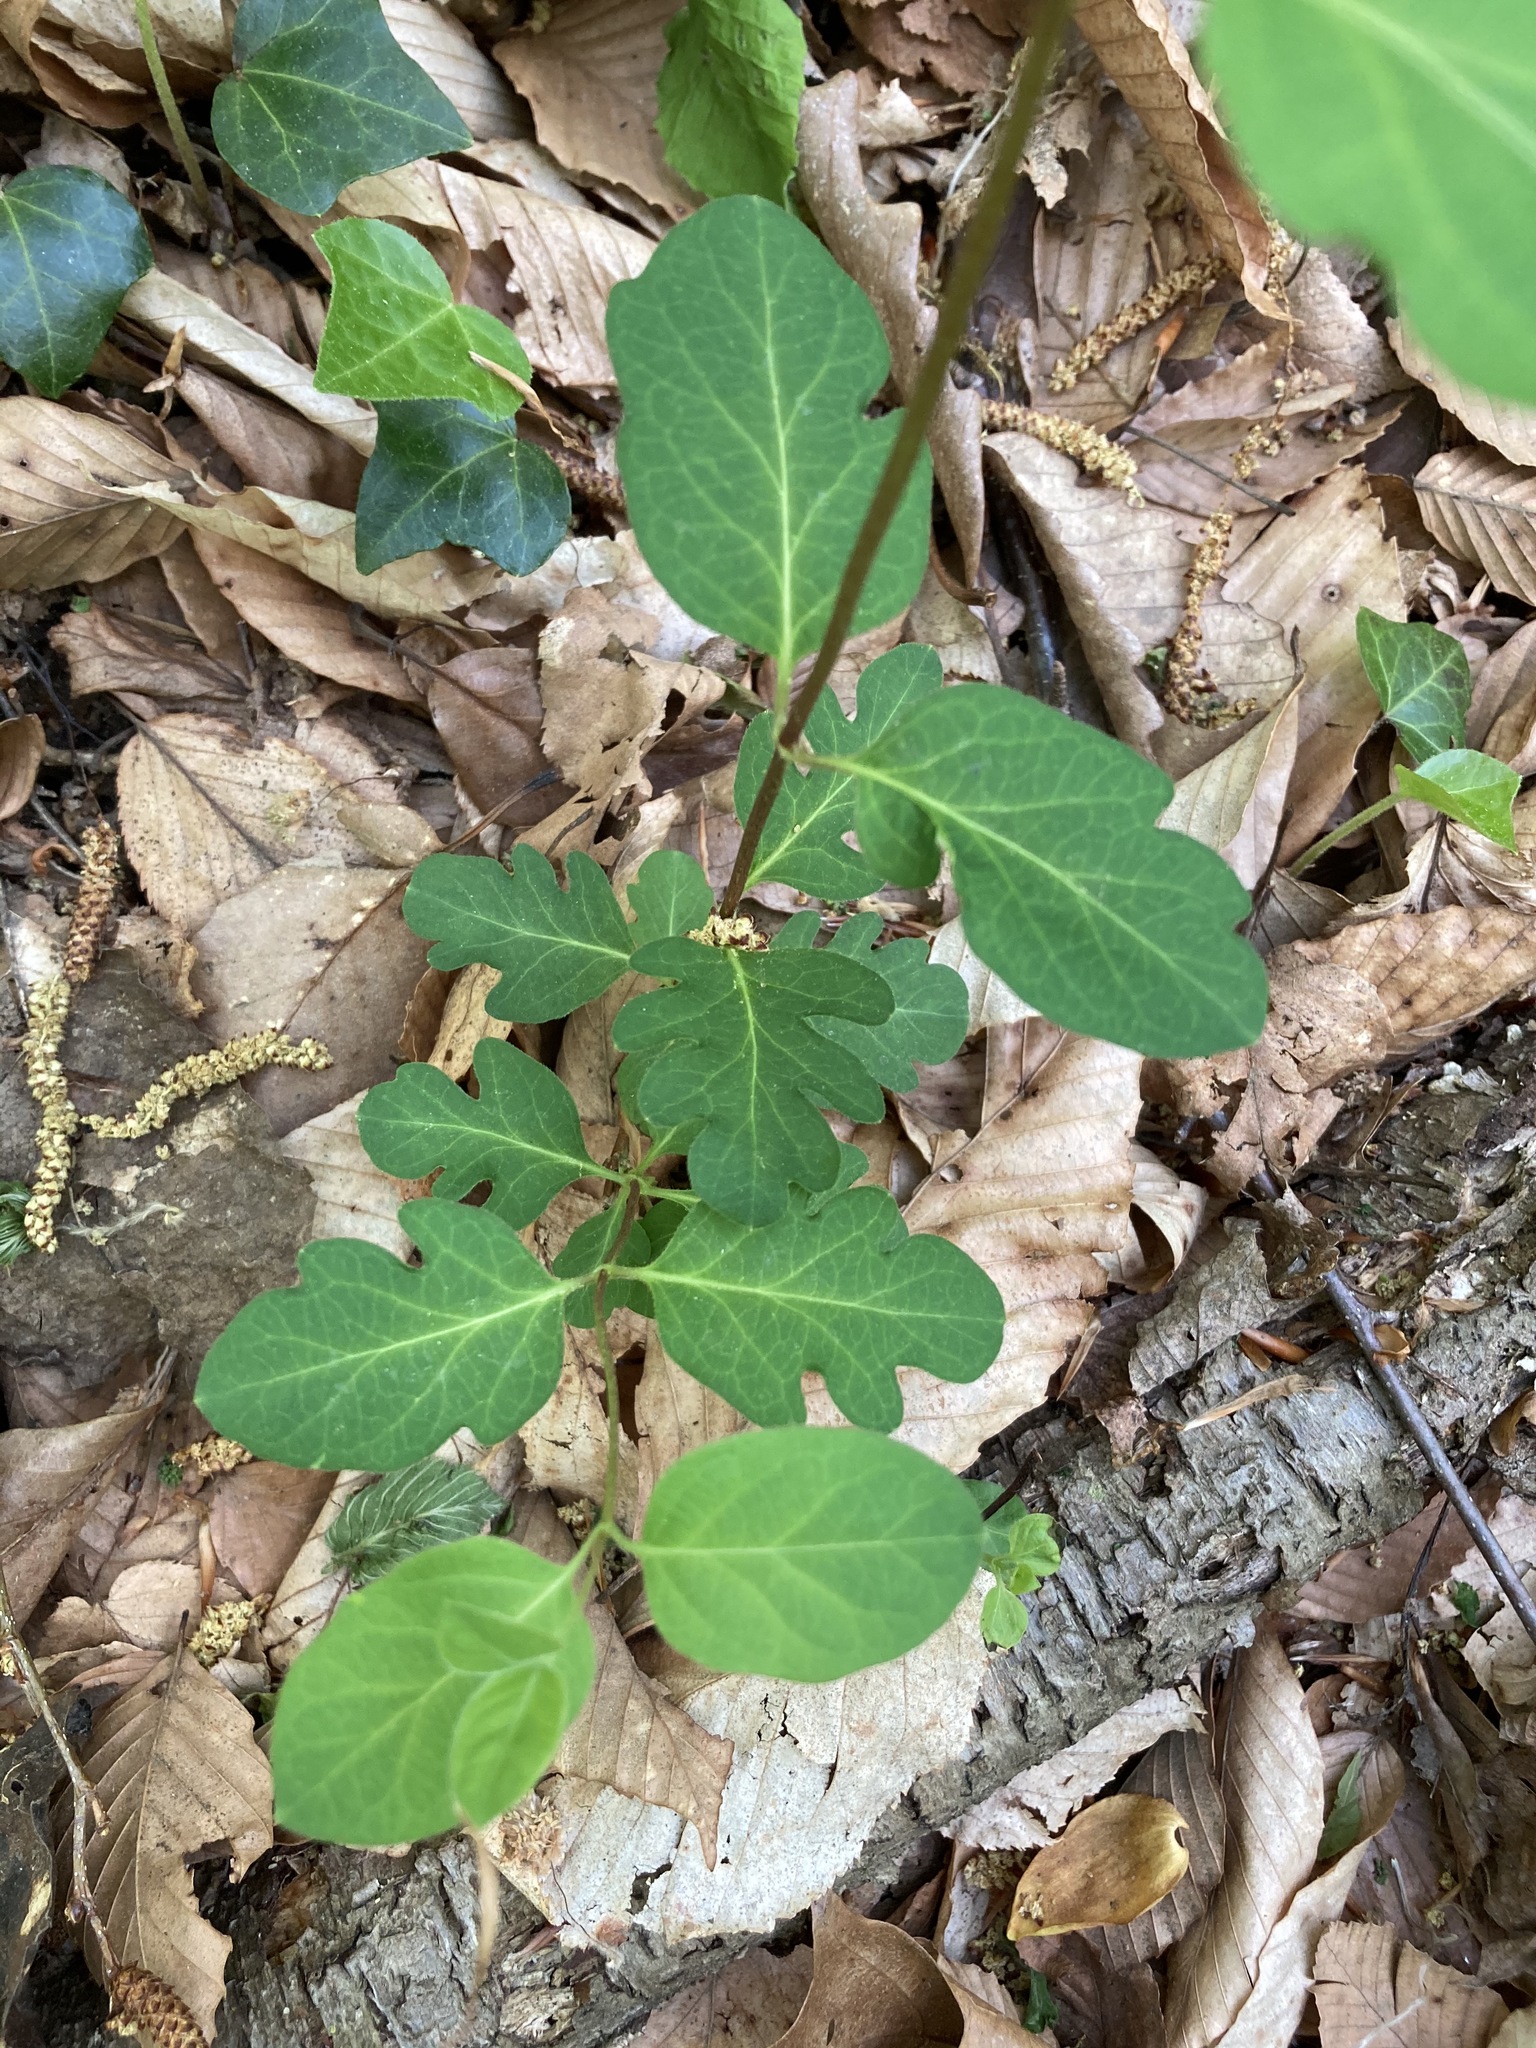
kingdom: Plantae
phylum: Tracheophyta
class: Magnoliopsida
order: Dipsacales
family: Caprifoliaceae
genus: Lonicera
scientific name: Lonicera japonica
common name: Japanese honeysuckle
